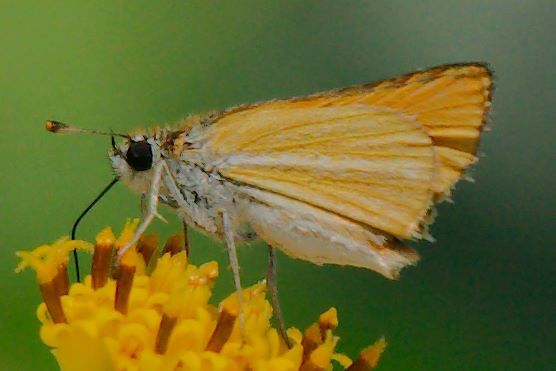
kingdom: Animalia
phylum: Arthropoda
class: Insecta
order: Lepidoptera
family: Hesperiidae
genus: Copaeodes
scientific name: Copaeodes minima
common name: Southern skipperling
